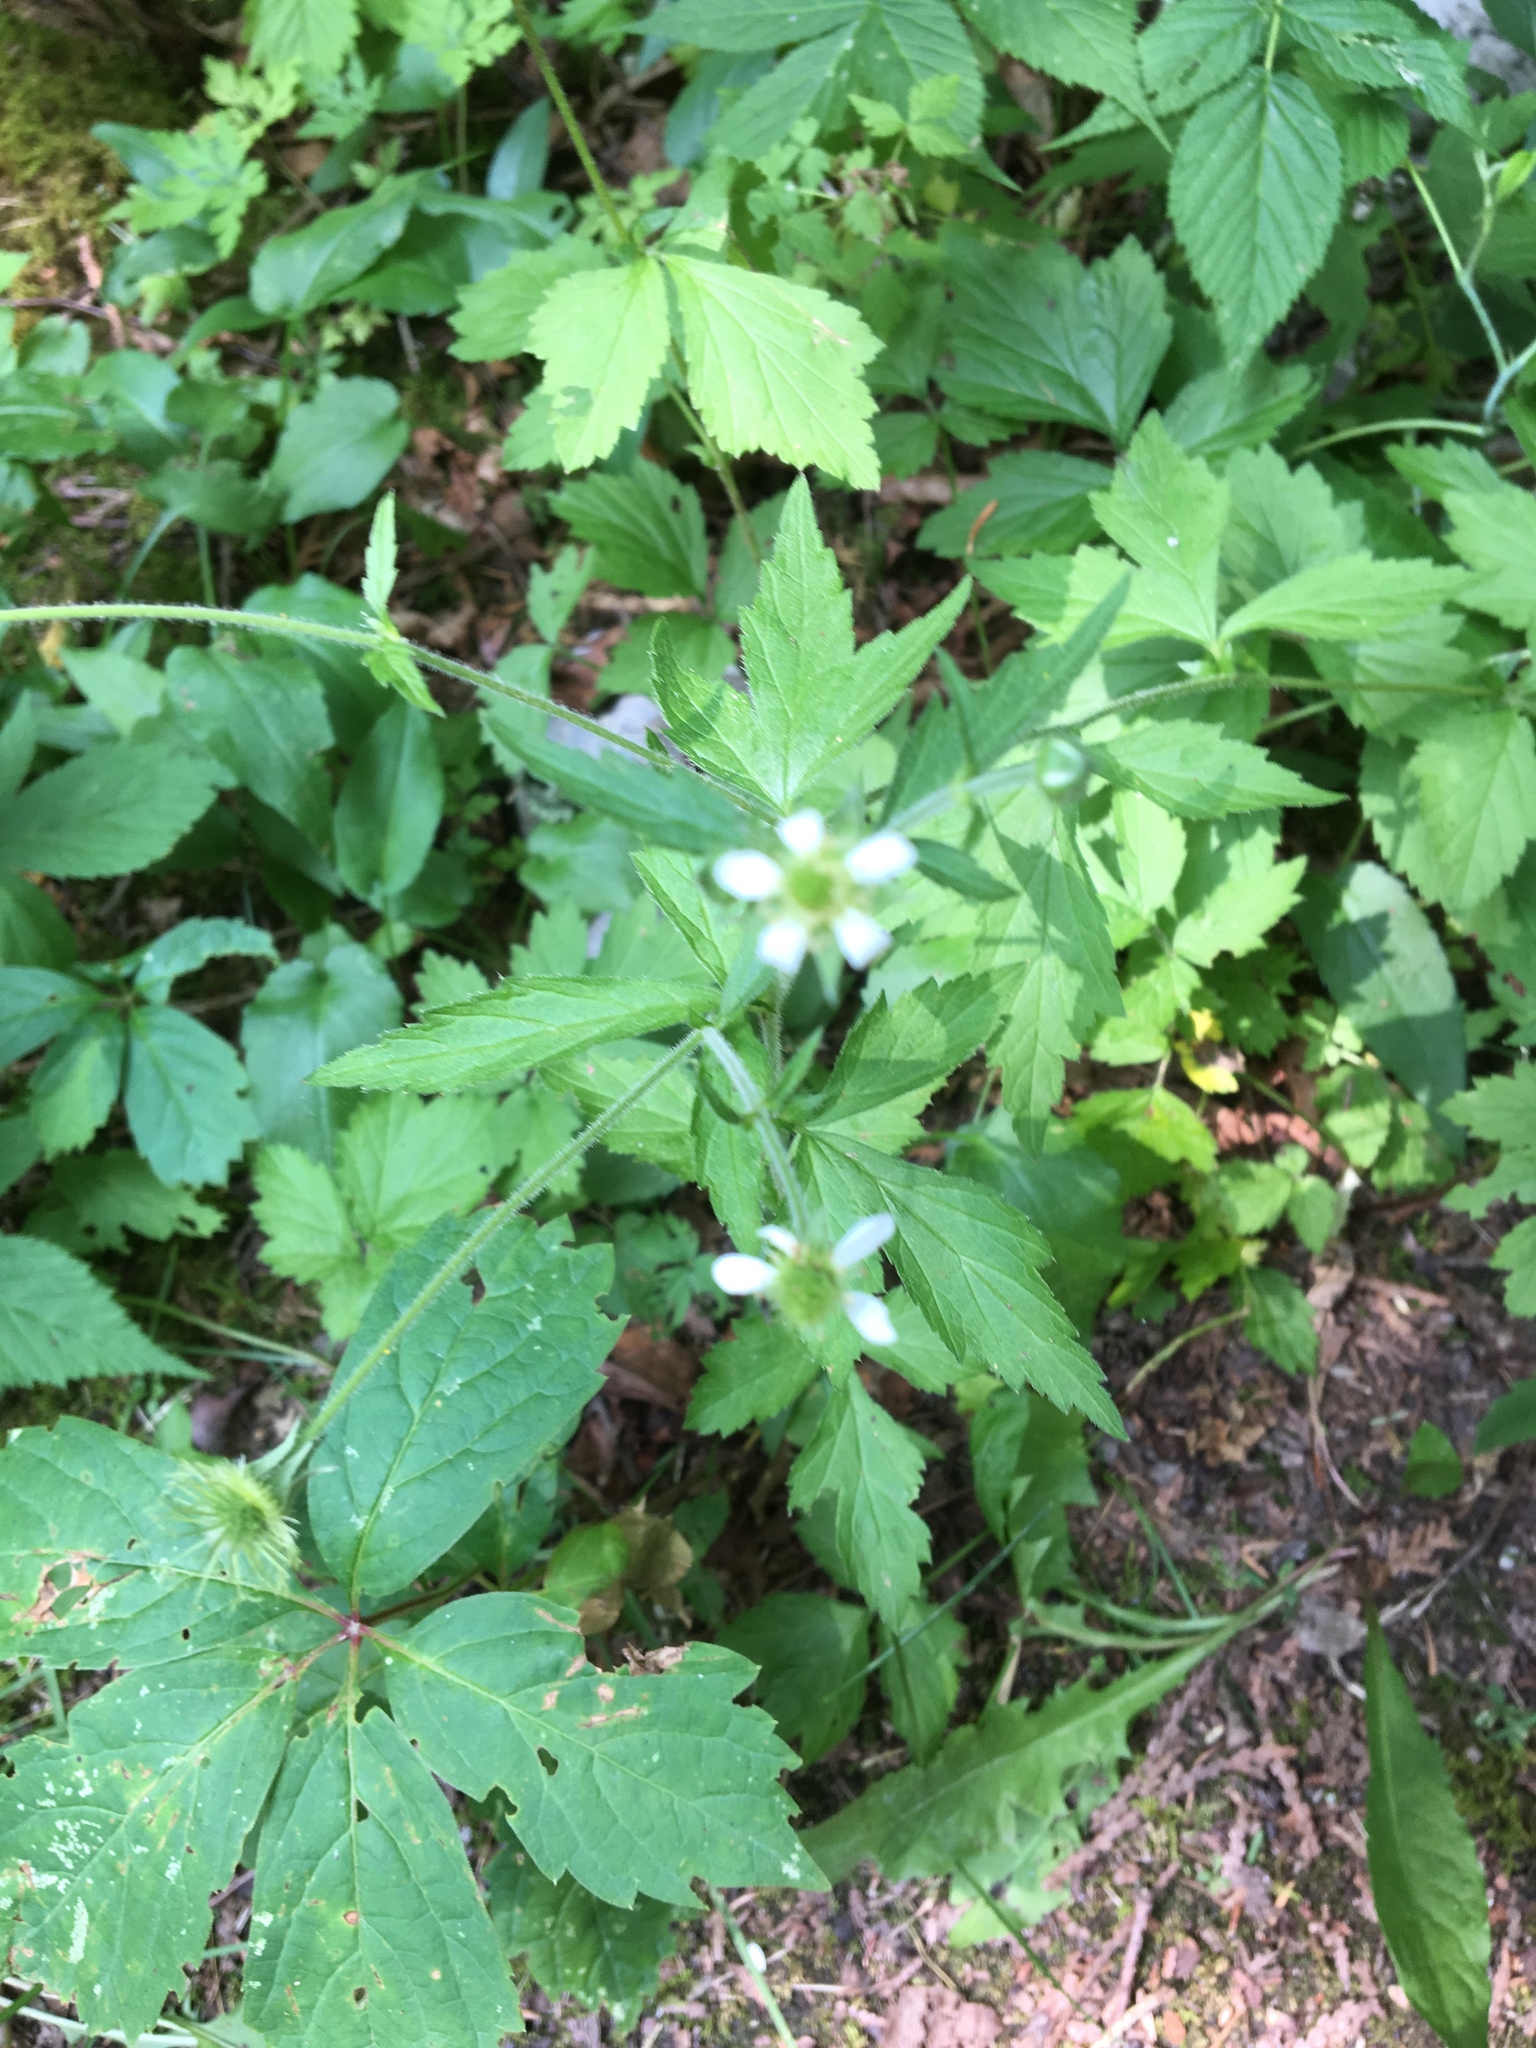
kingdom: Plantae
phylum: Tracheophyta
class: Magnoliopsida
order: Rosales
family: Rosaceae
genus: Geum
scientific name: Geum canadense
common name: White avens
